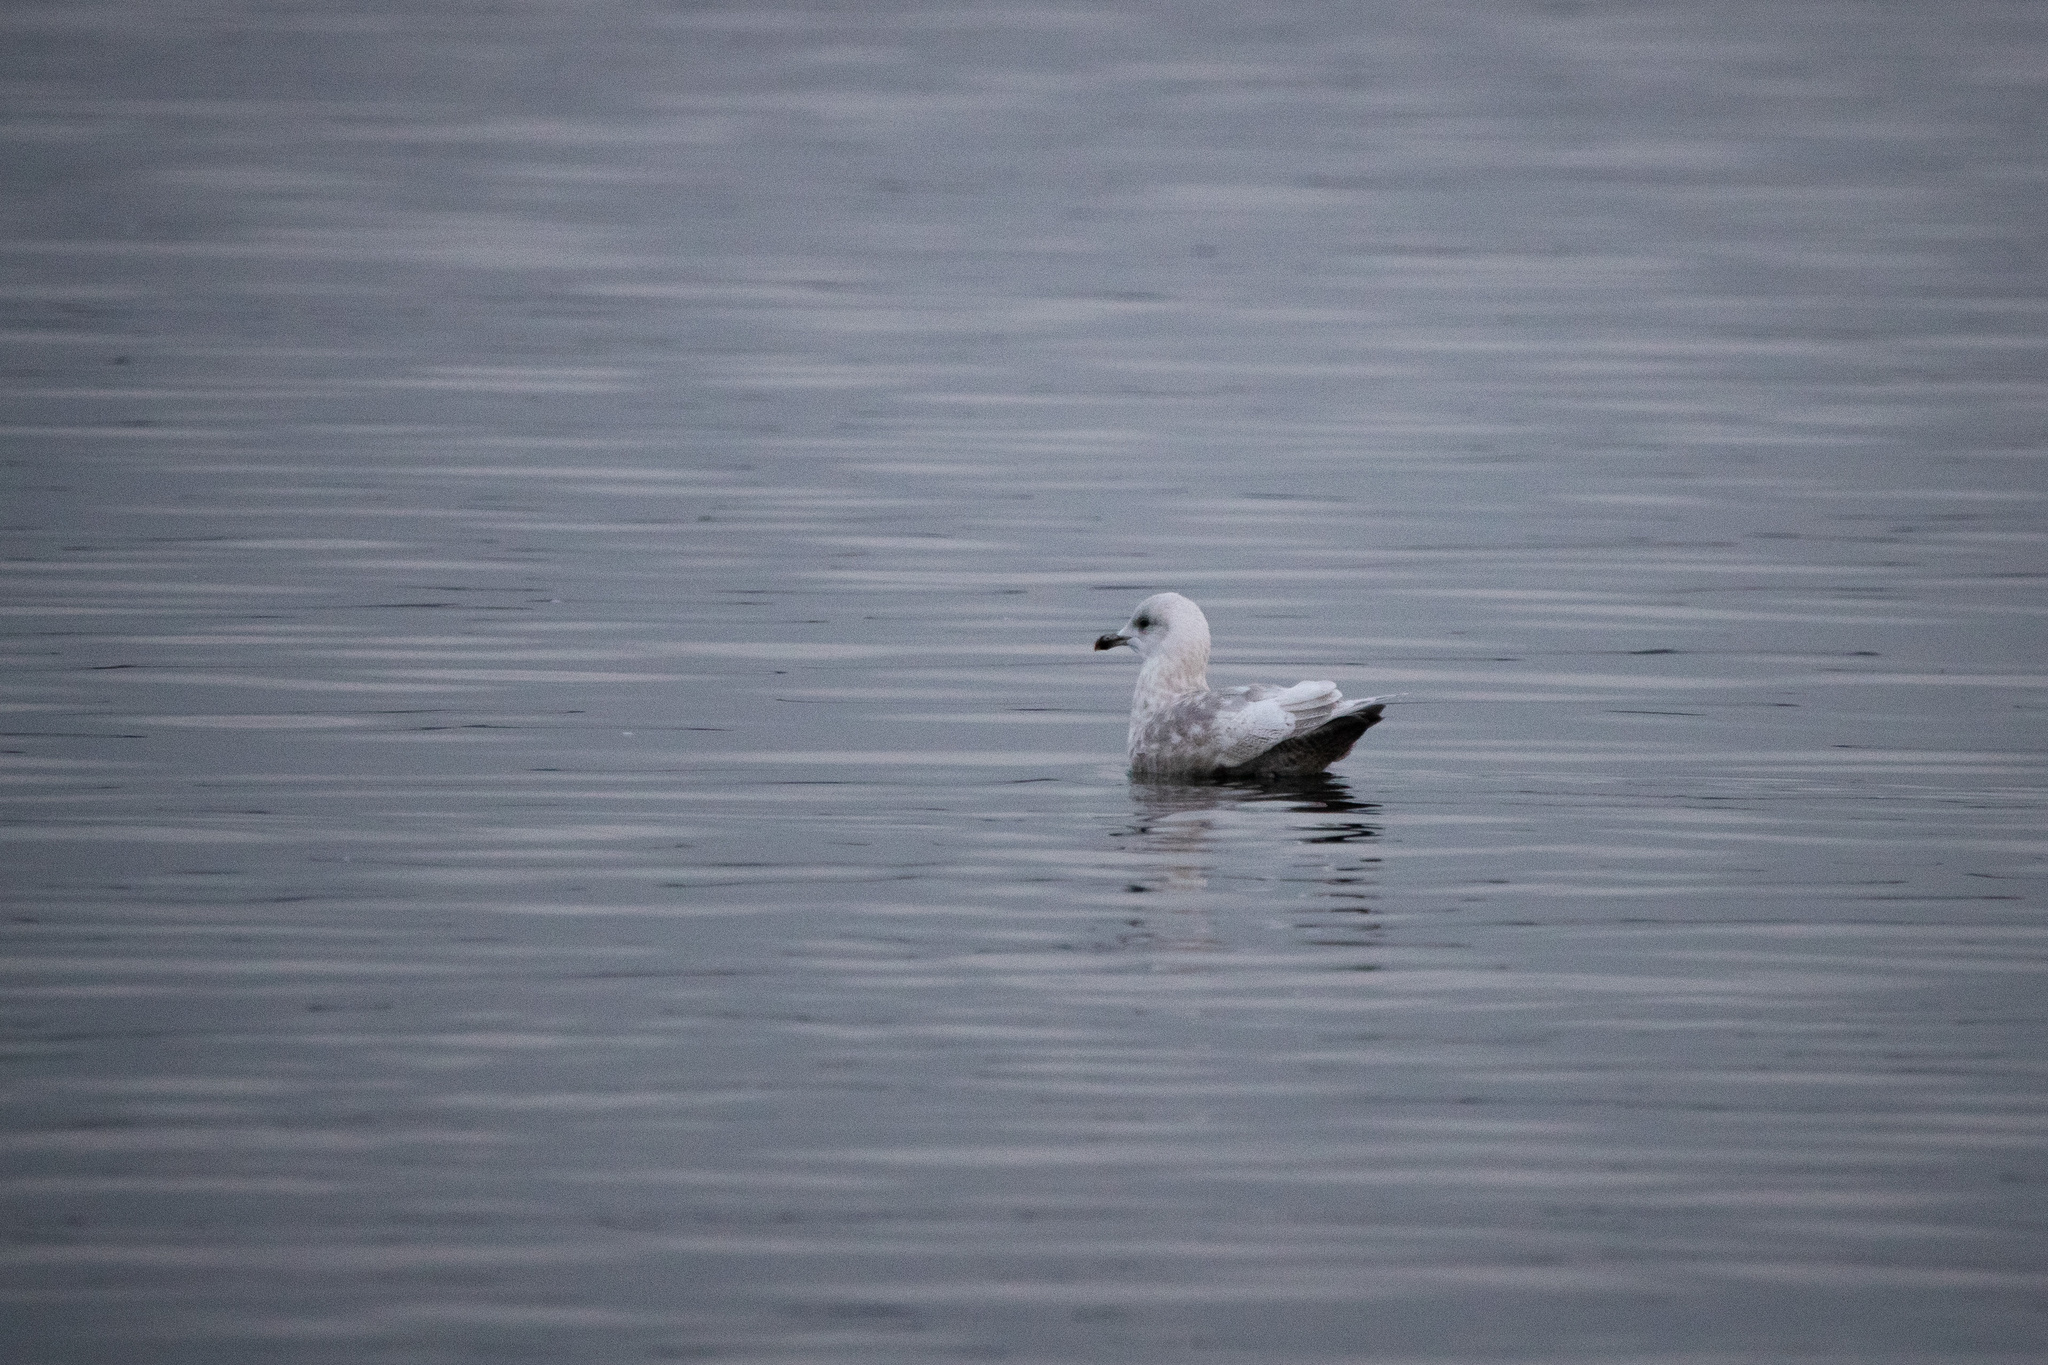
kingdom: Animalia
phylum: Chordata
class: Aves
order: Charadriiformes
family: Laridae
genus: Larus
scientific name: Larus glaucoides
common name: Iceland gull
